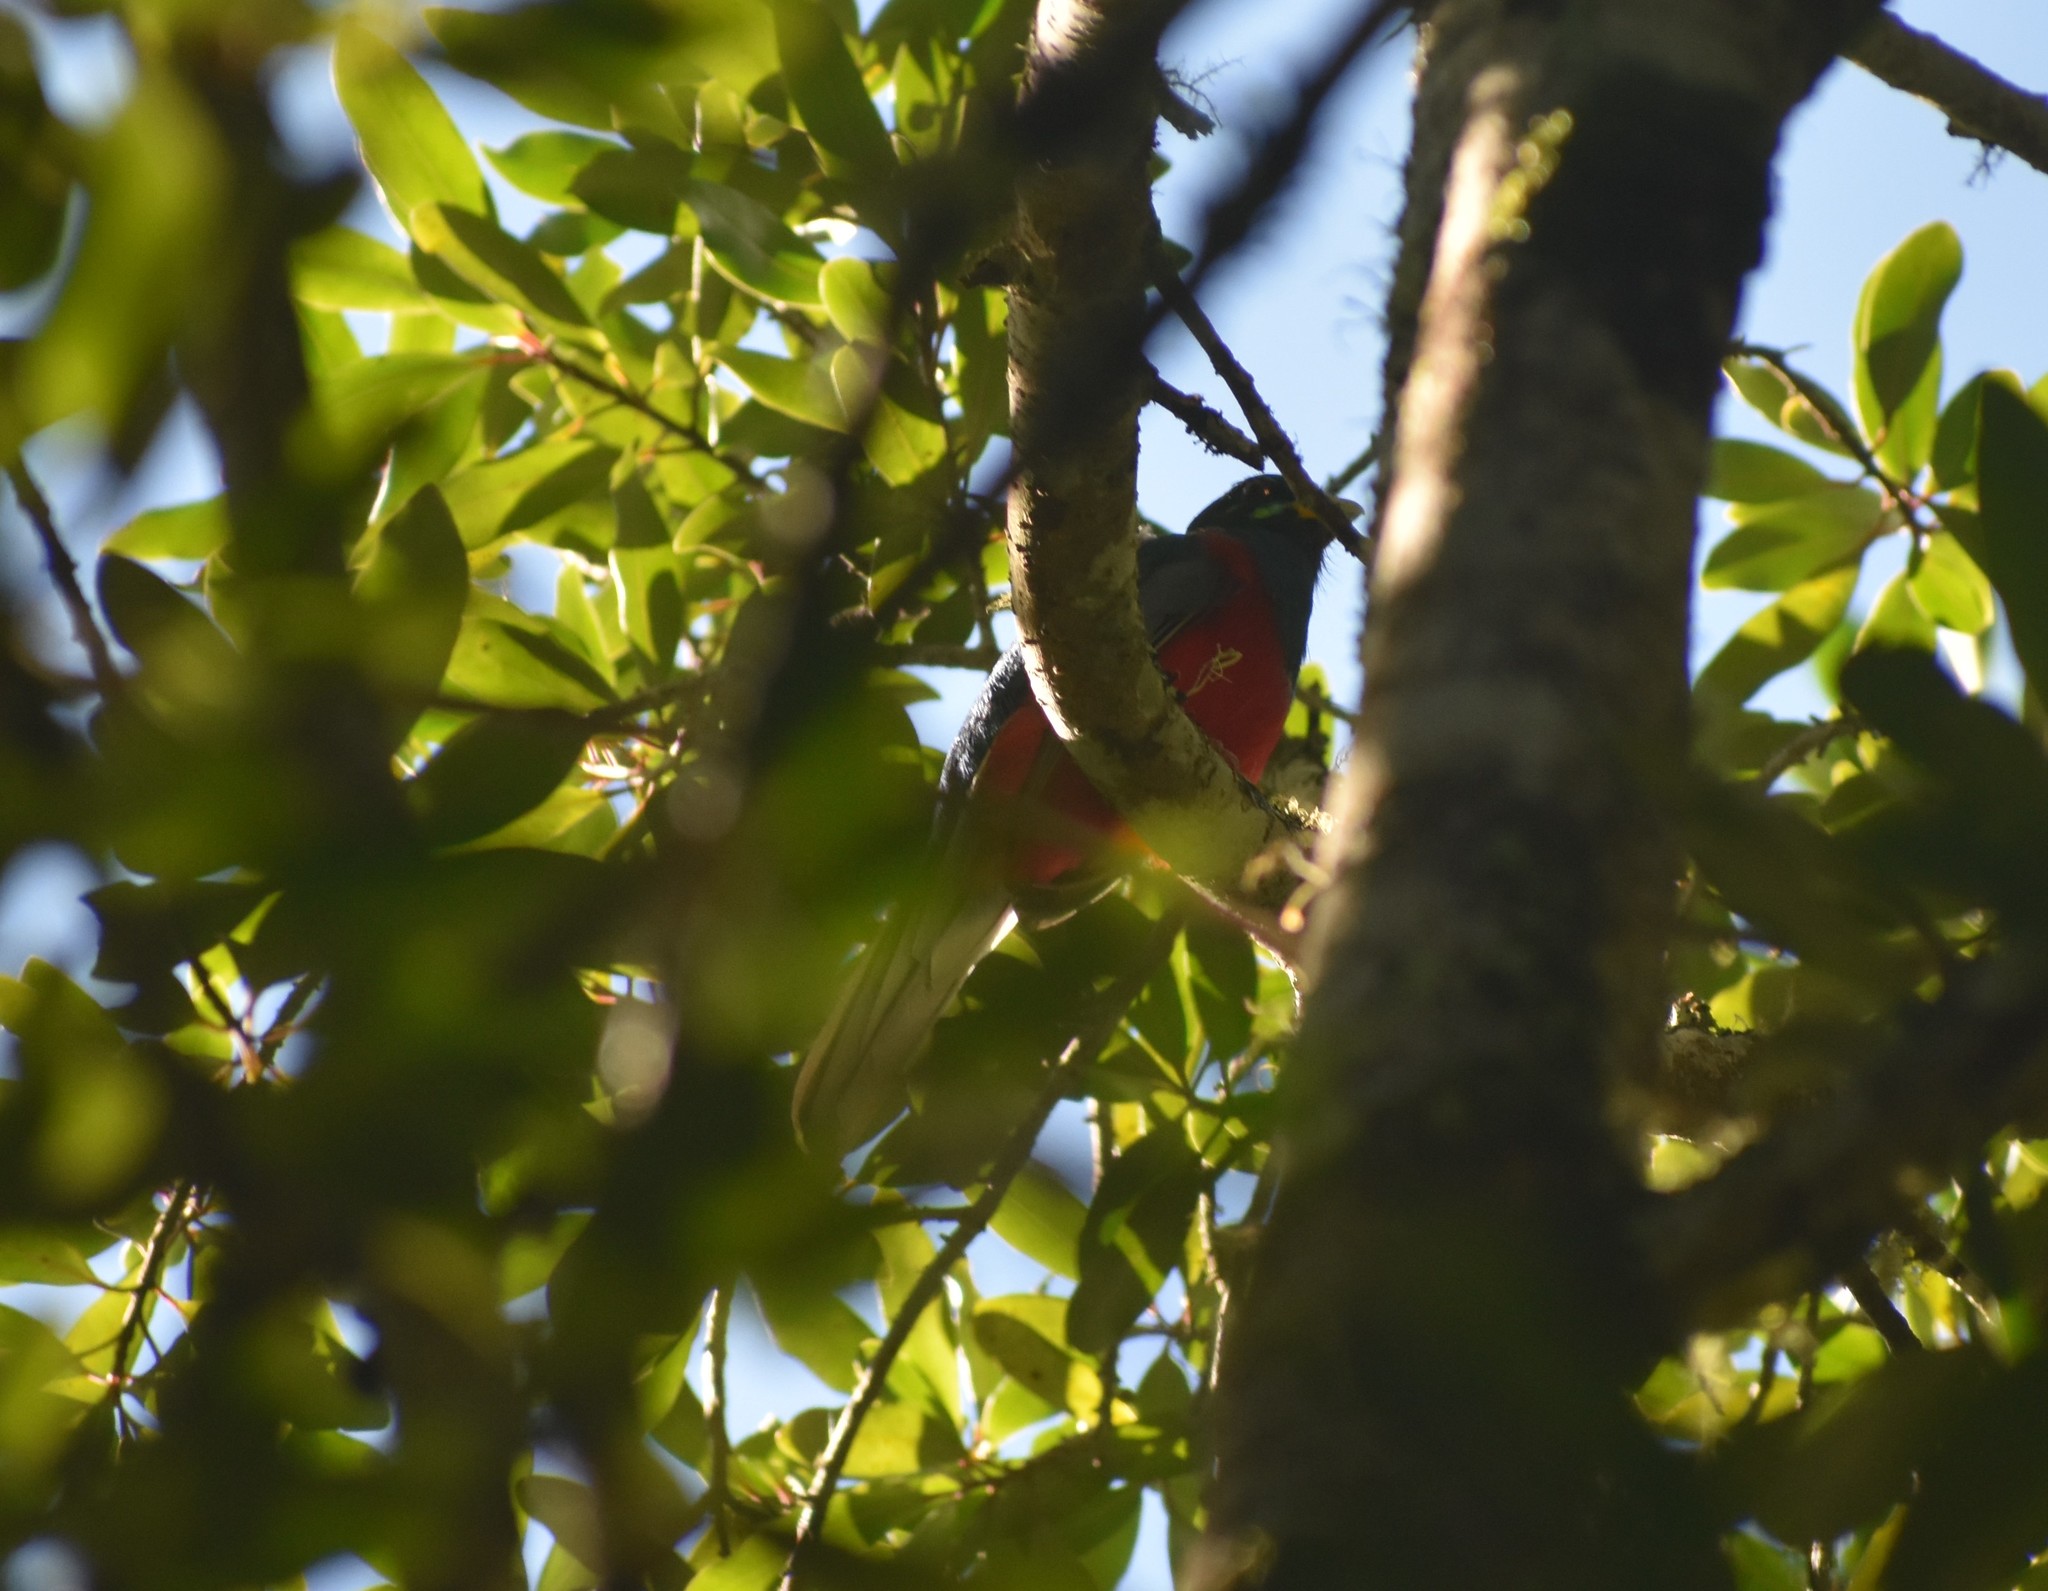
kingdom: Animalia
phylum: Chordata
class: Aves
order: Trogoniformes
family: Trogonidae
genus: Apaloderma
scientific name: Apaloderma narina
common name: Narina trogon
